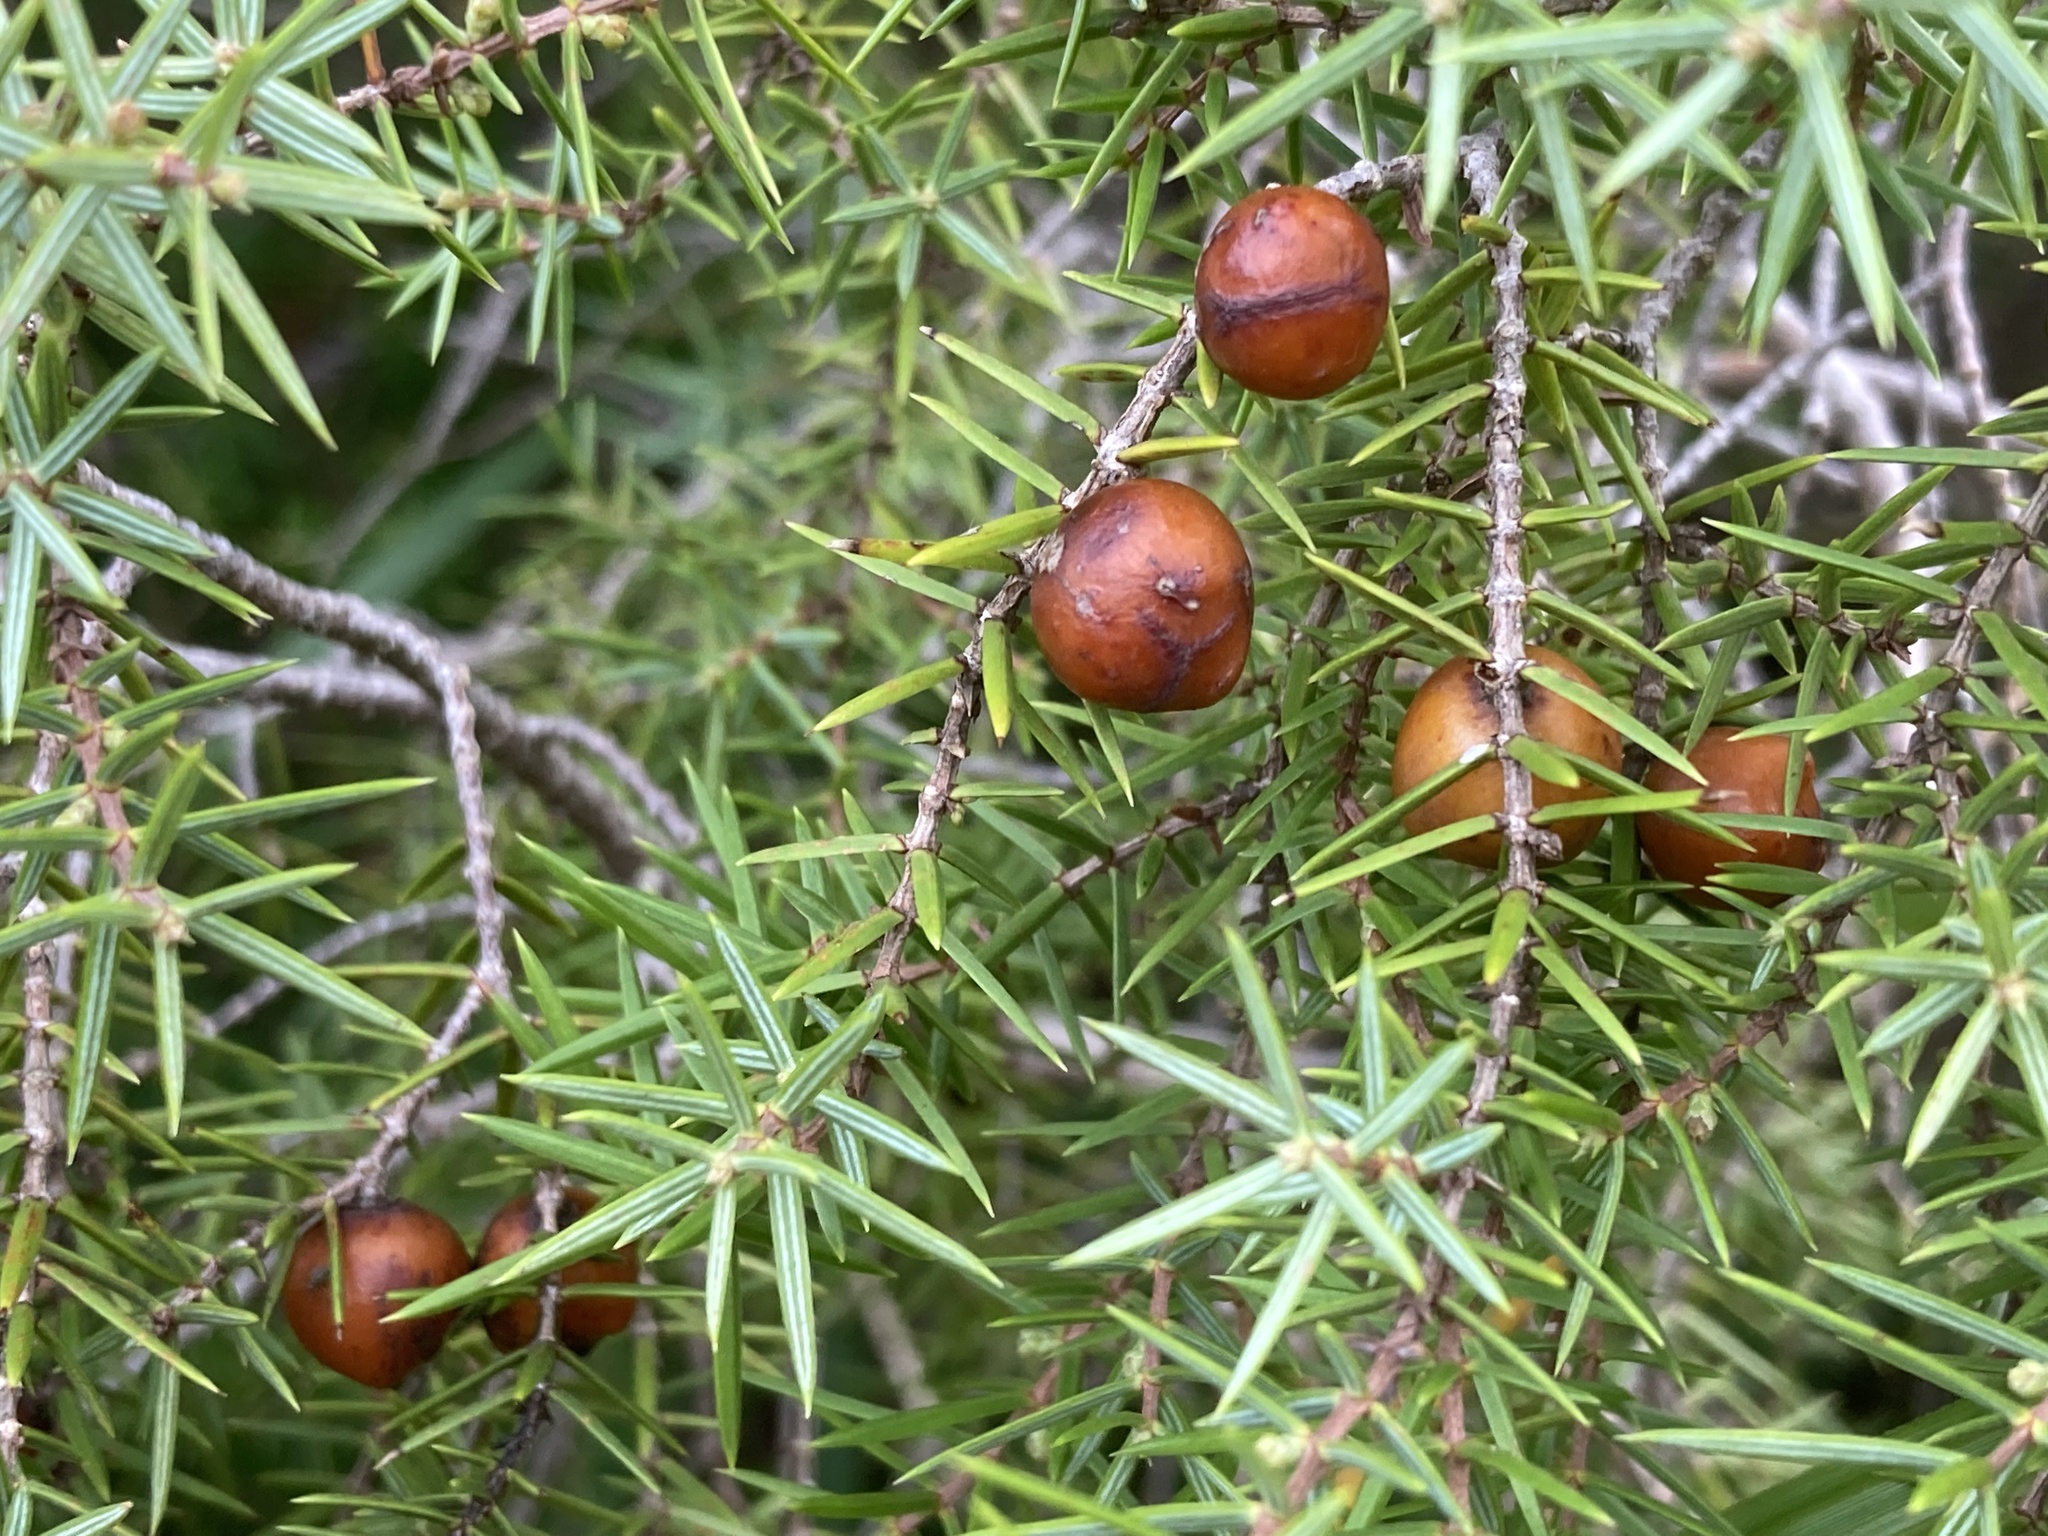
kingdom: Plantae
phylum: Tracheophyta
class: Pinopsida
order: Pinales
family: Cupressaceae
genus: Juniperus
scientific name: Juniperus oxycedrus
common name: Prickly juniper
